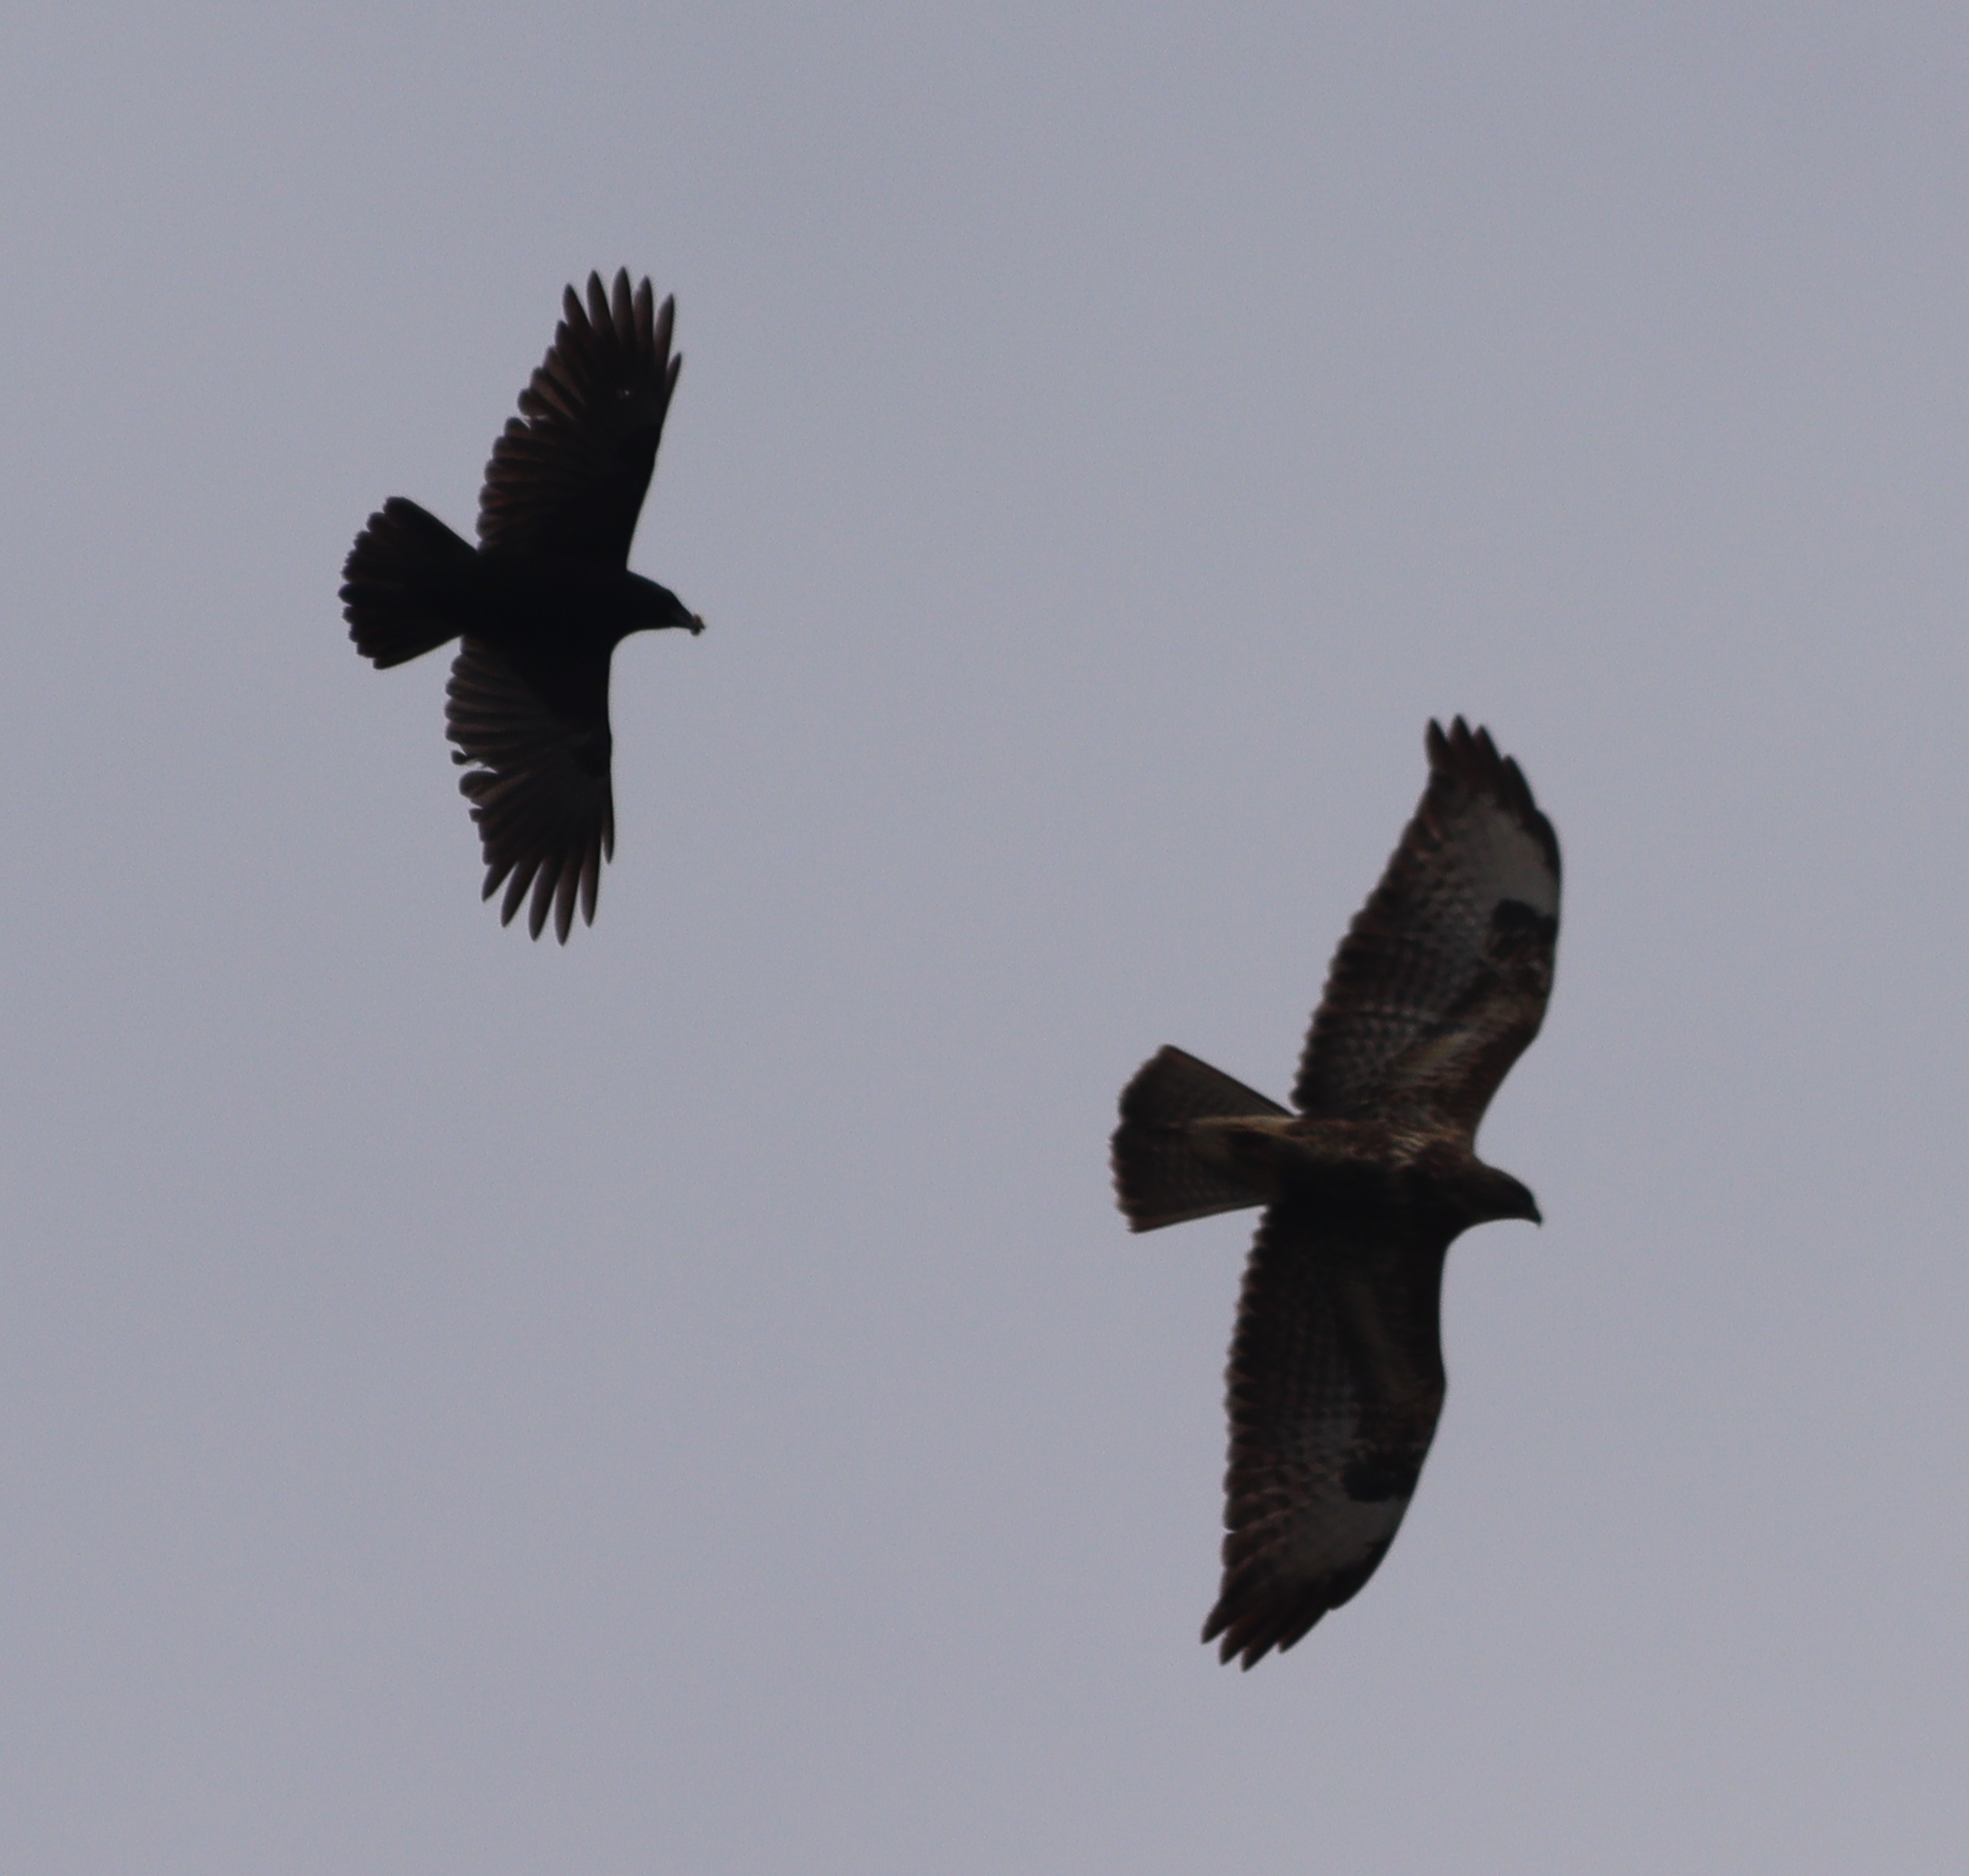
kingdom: Animalia
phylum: Chordata
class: Aves
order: Passeriformes
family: Corvidae
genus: Corvus
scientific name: Corvus corone
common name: Carrion crow
